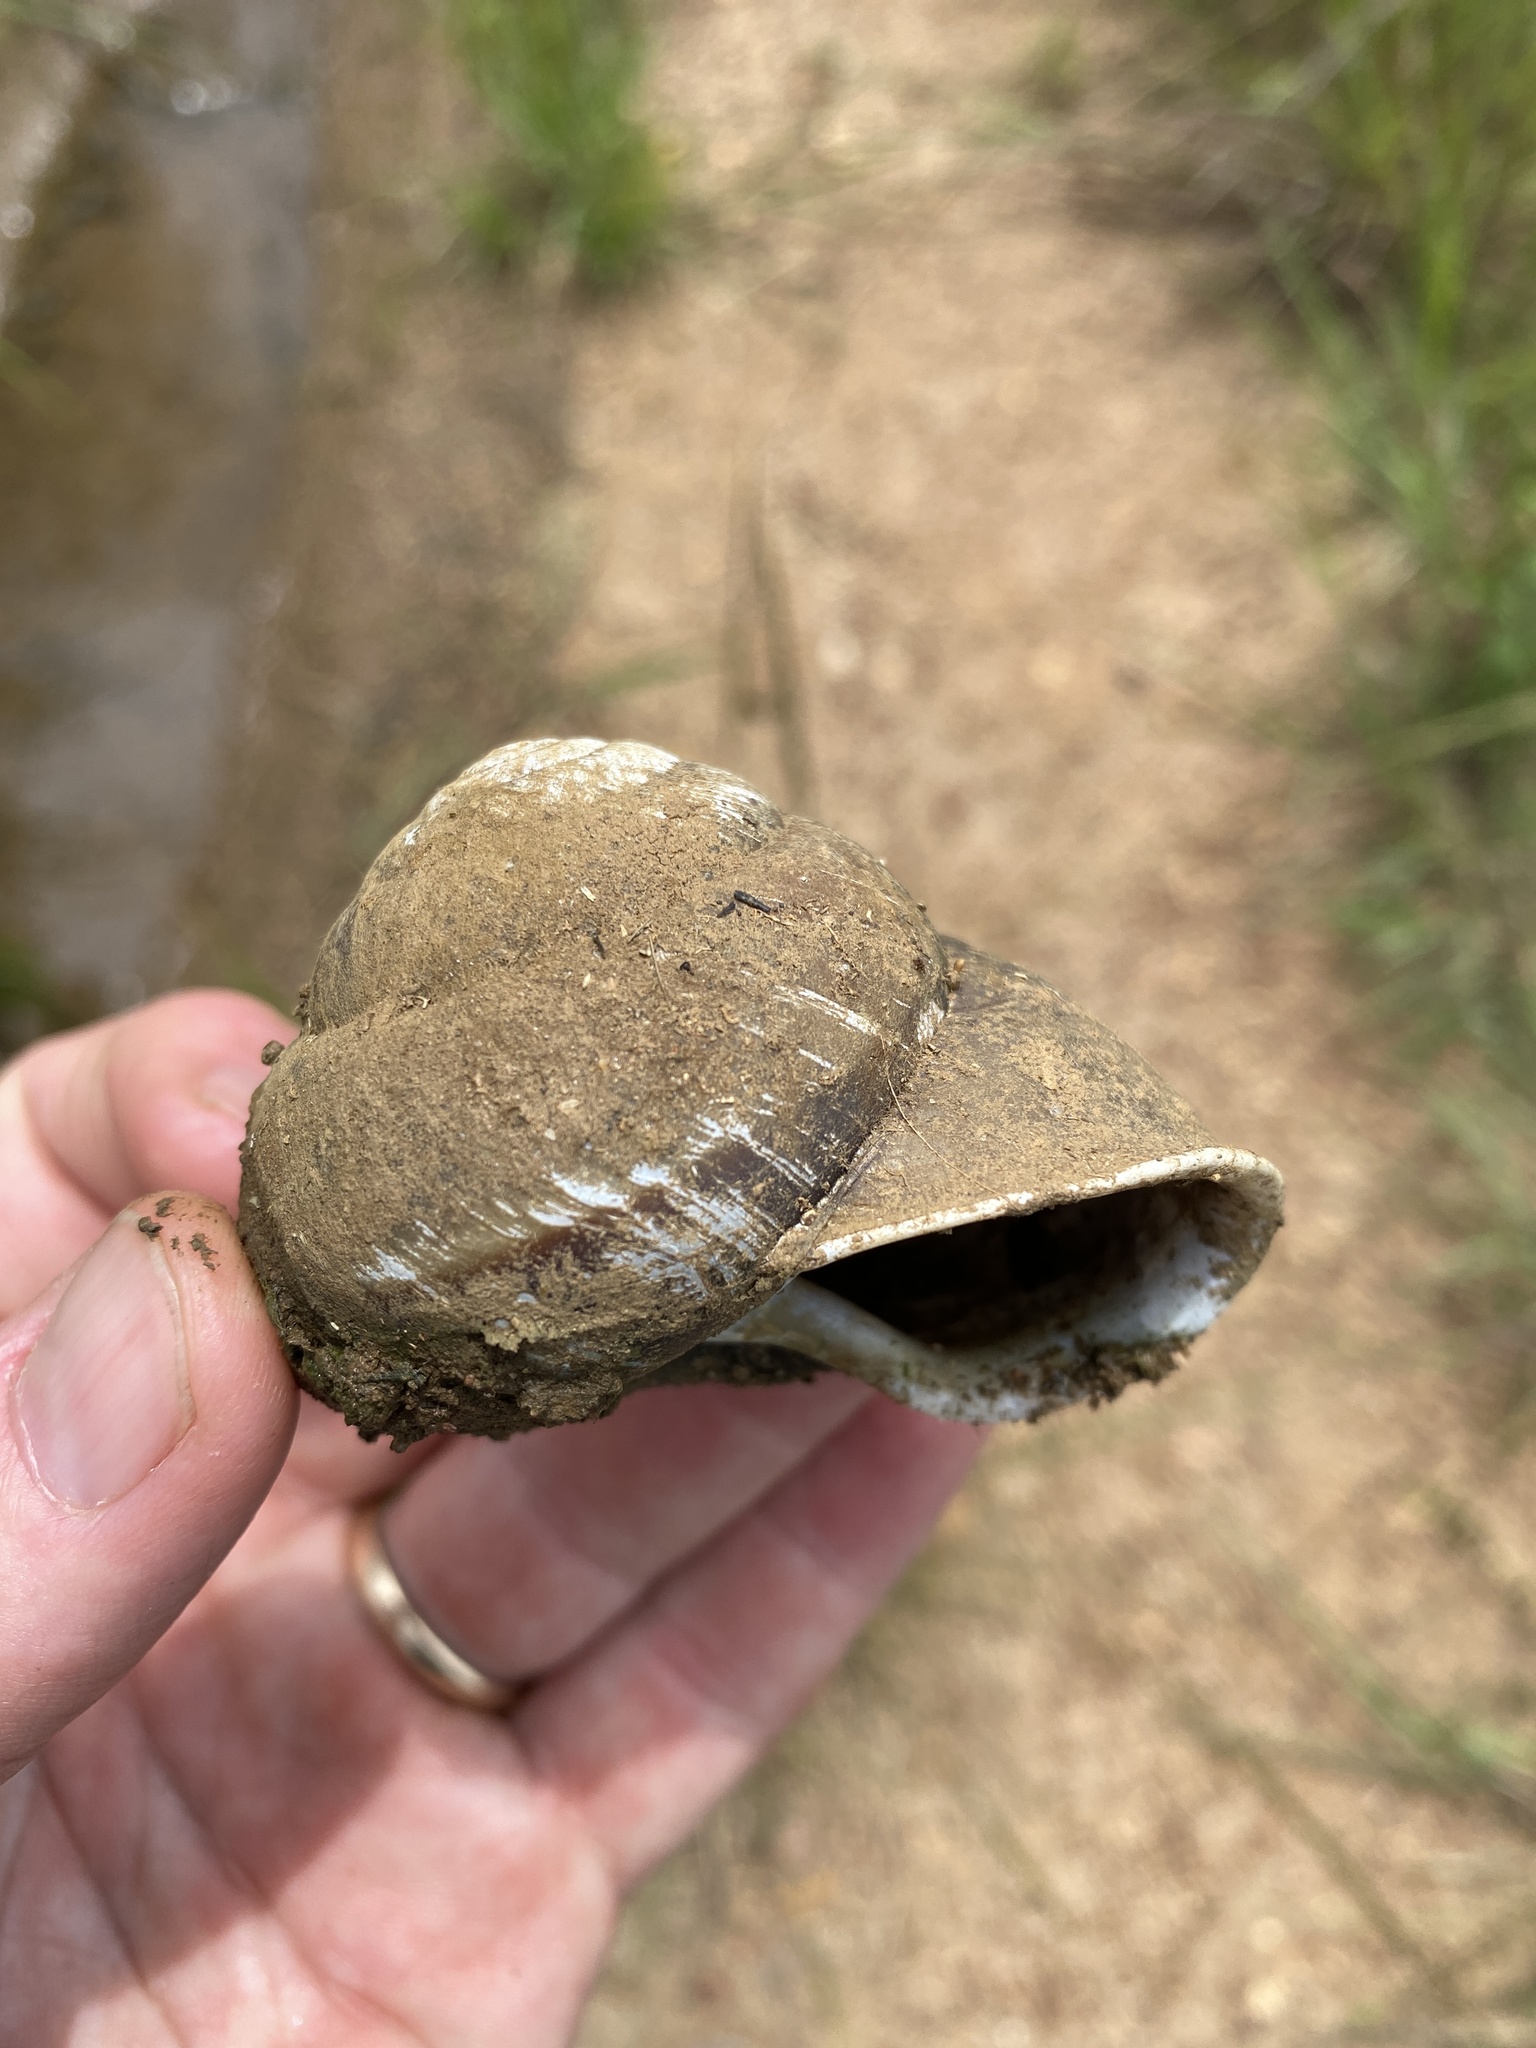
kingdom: Animalia
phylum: Mollusca
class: Gastropoda
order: Stylommatophora
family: Camaenidae
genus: Hadra
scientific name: Hadra bipartita
